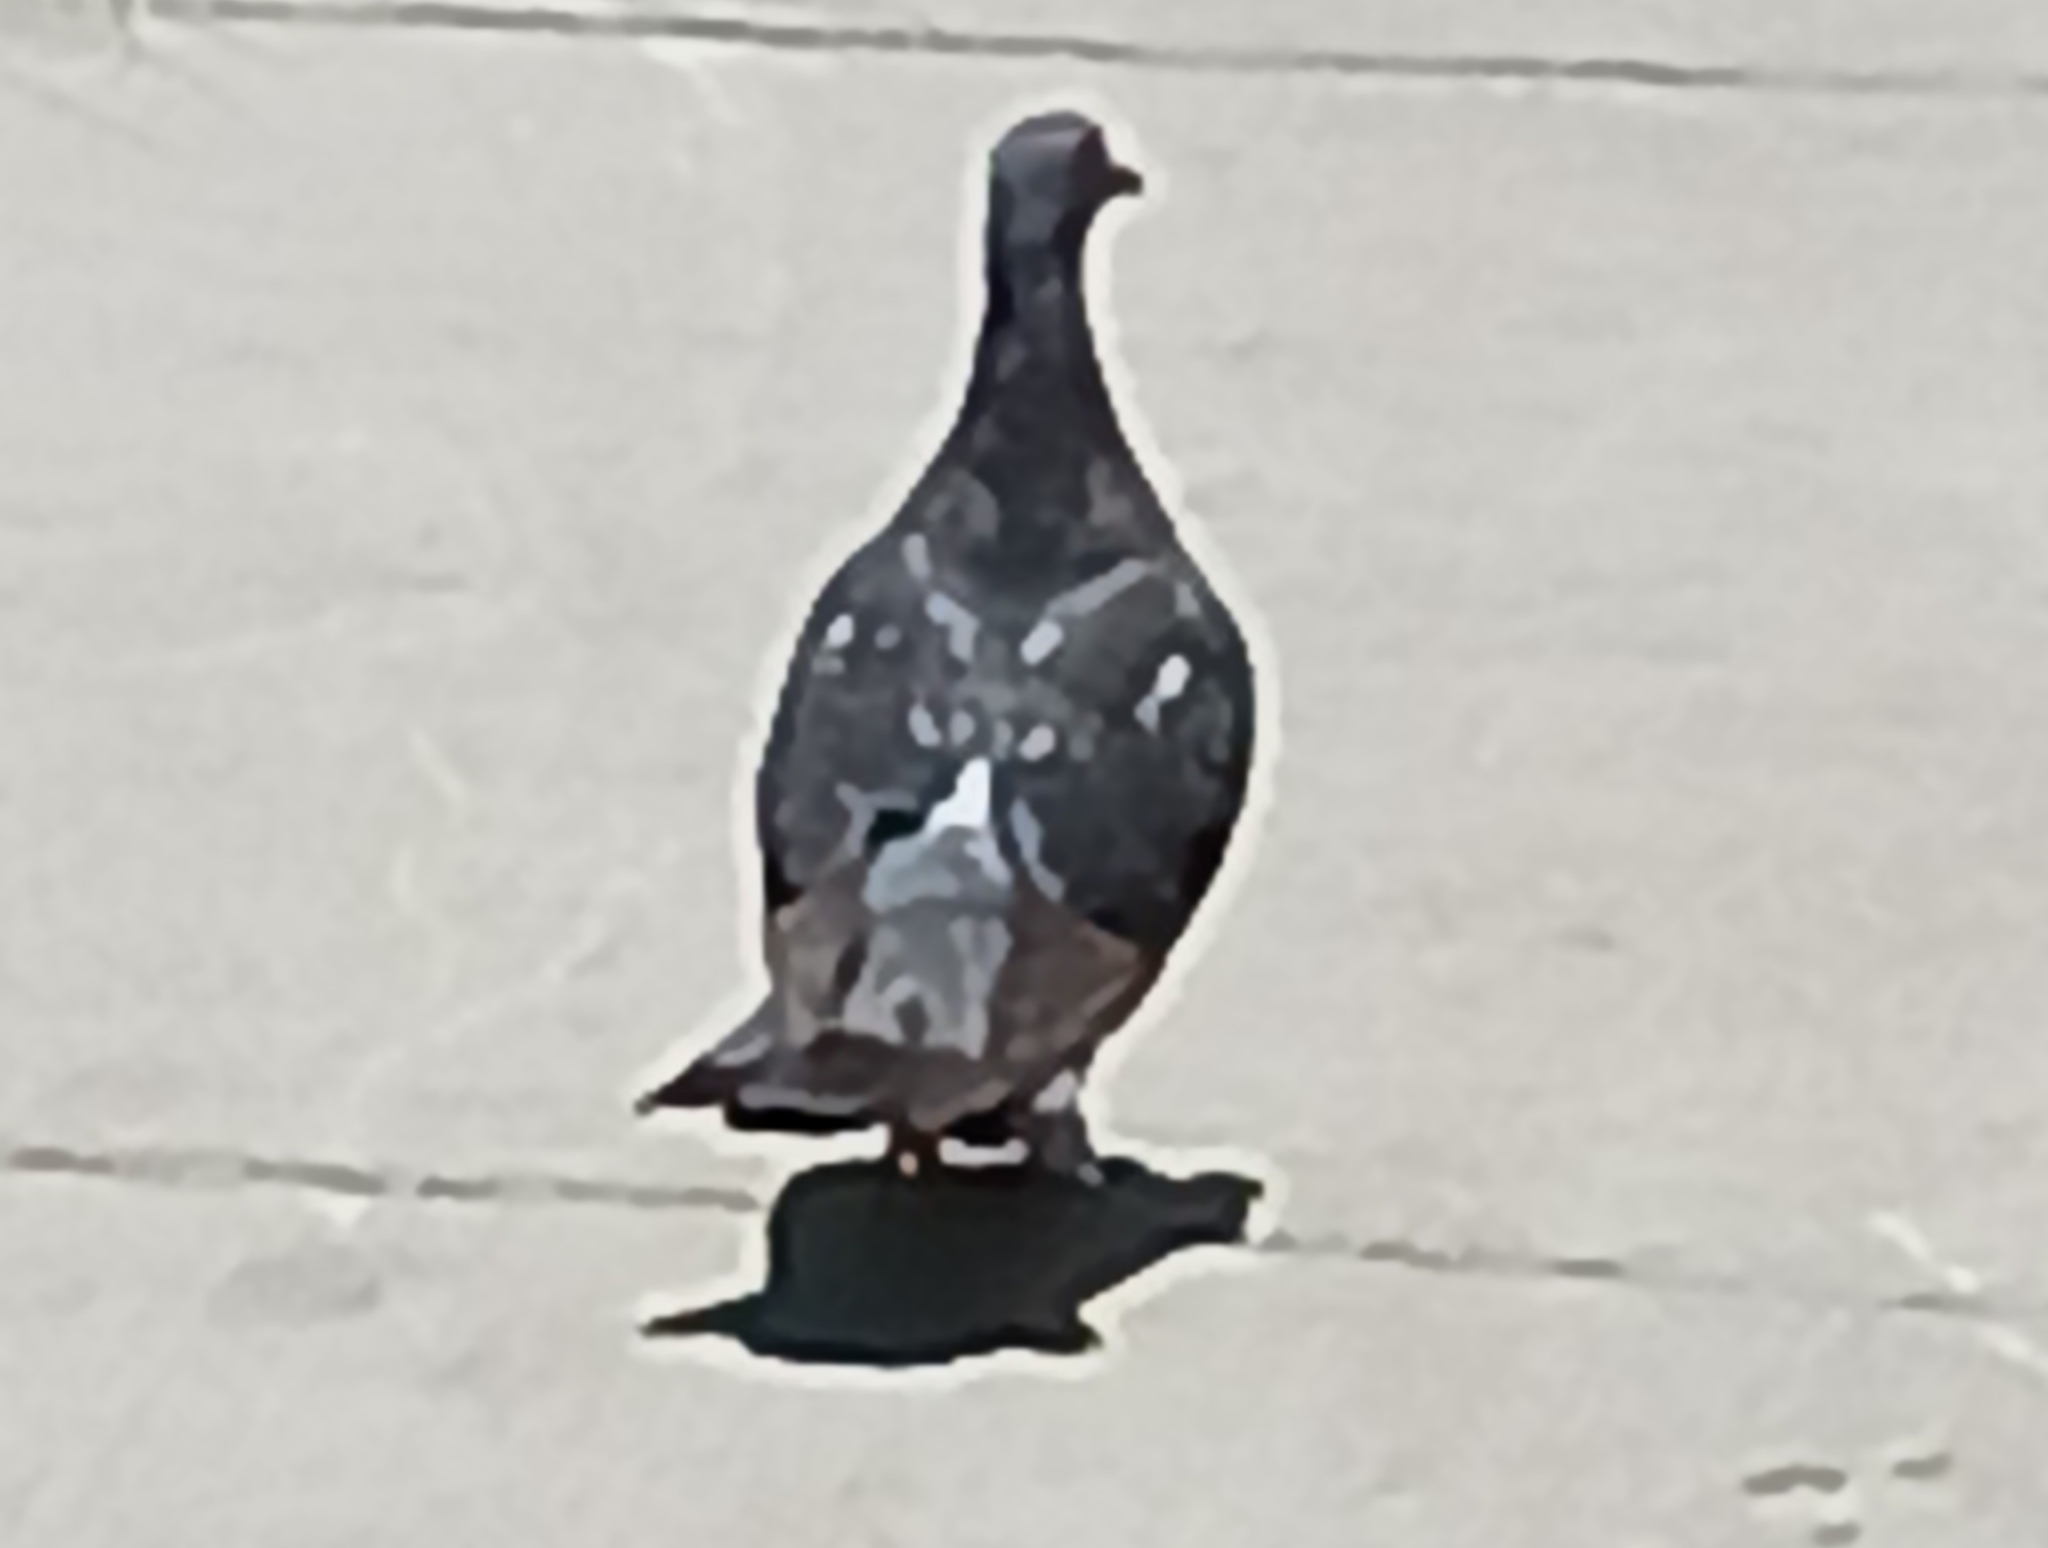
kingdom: Animalia
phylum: Chordata
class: Aves
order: Columbiformes
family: Columbidae
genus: Columba
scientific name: Columba livia
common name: Rock pigeon
